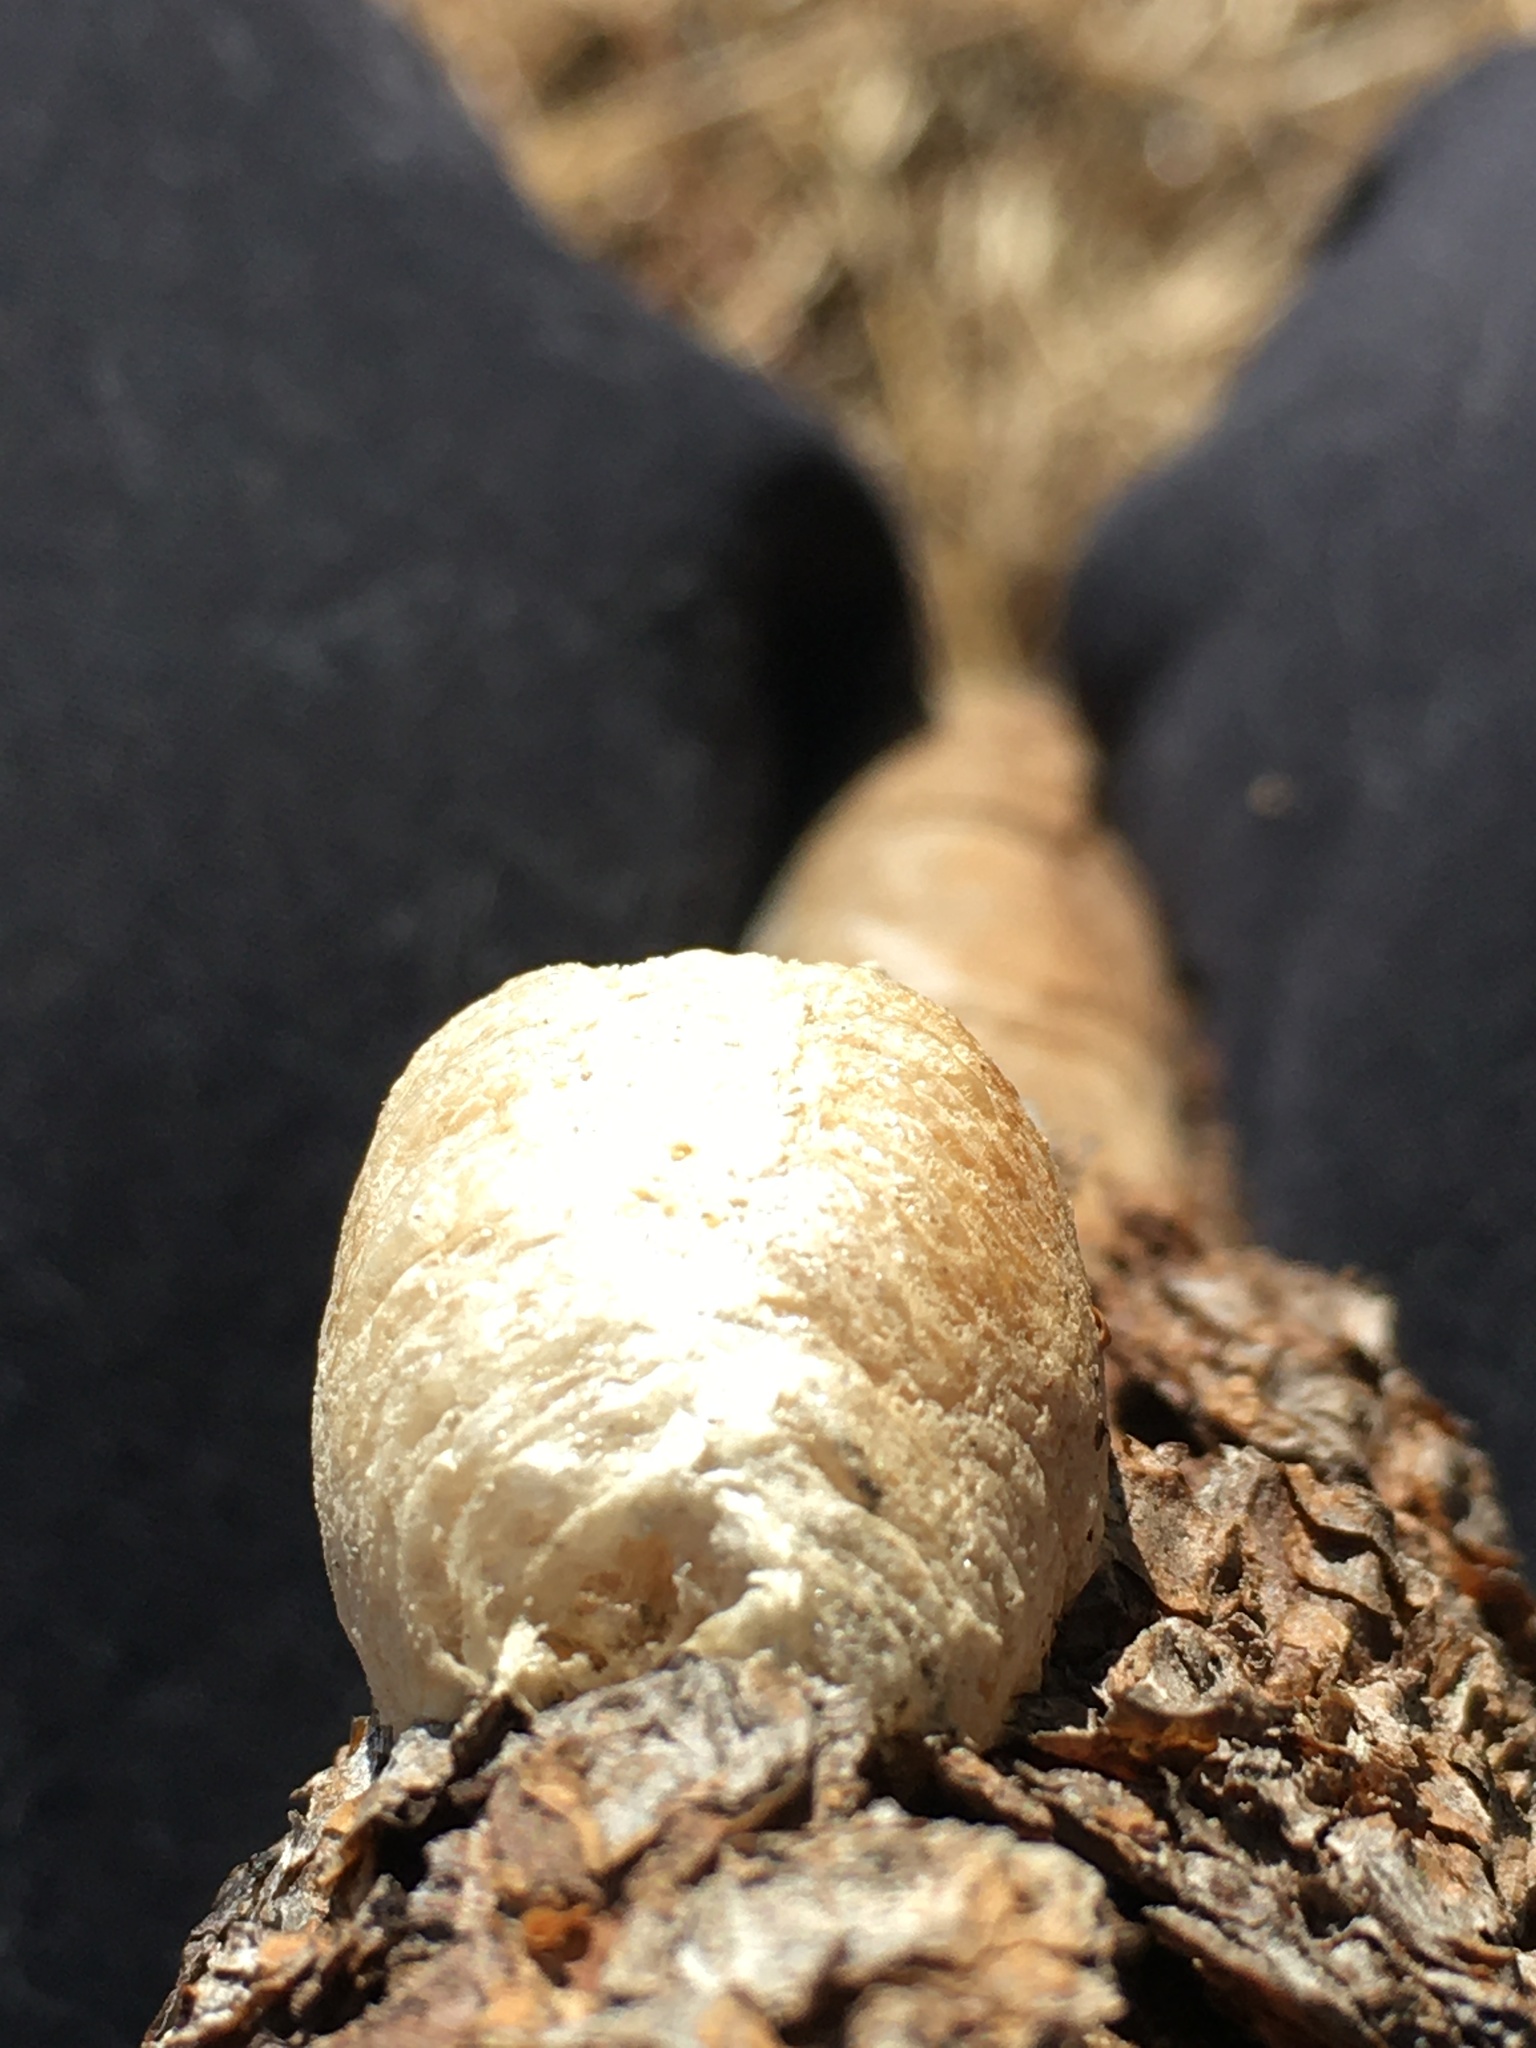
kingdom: Animalia
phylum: Arthropoda
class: Insecta
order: Mantodea
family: Mantidae
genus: Mantis
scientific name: Mantis religiosa
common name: Praying mantis
